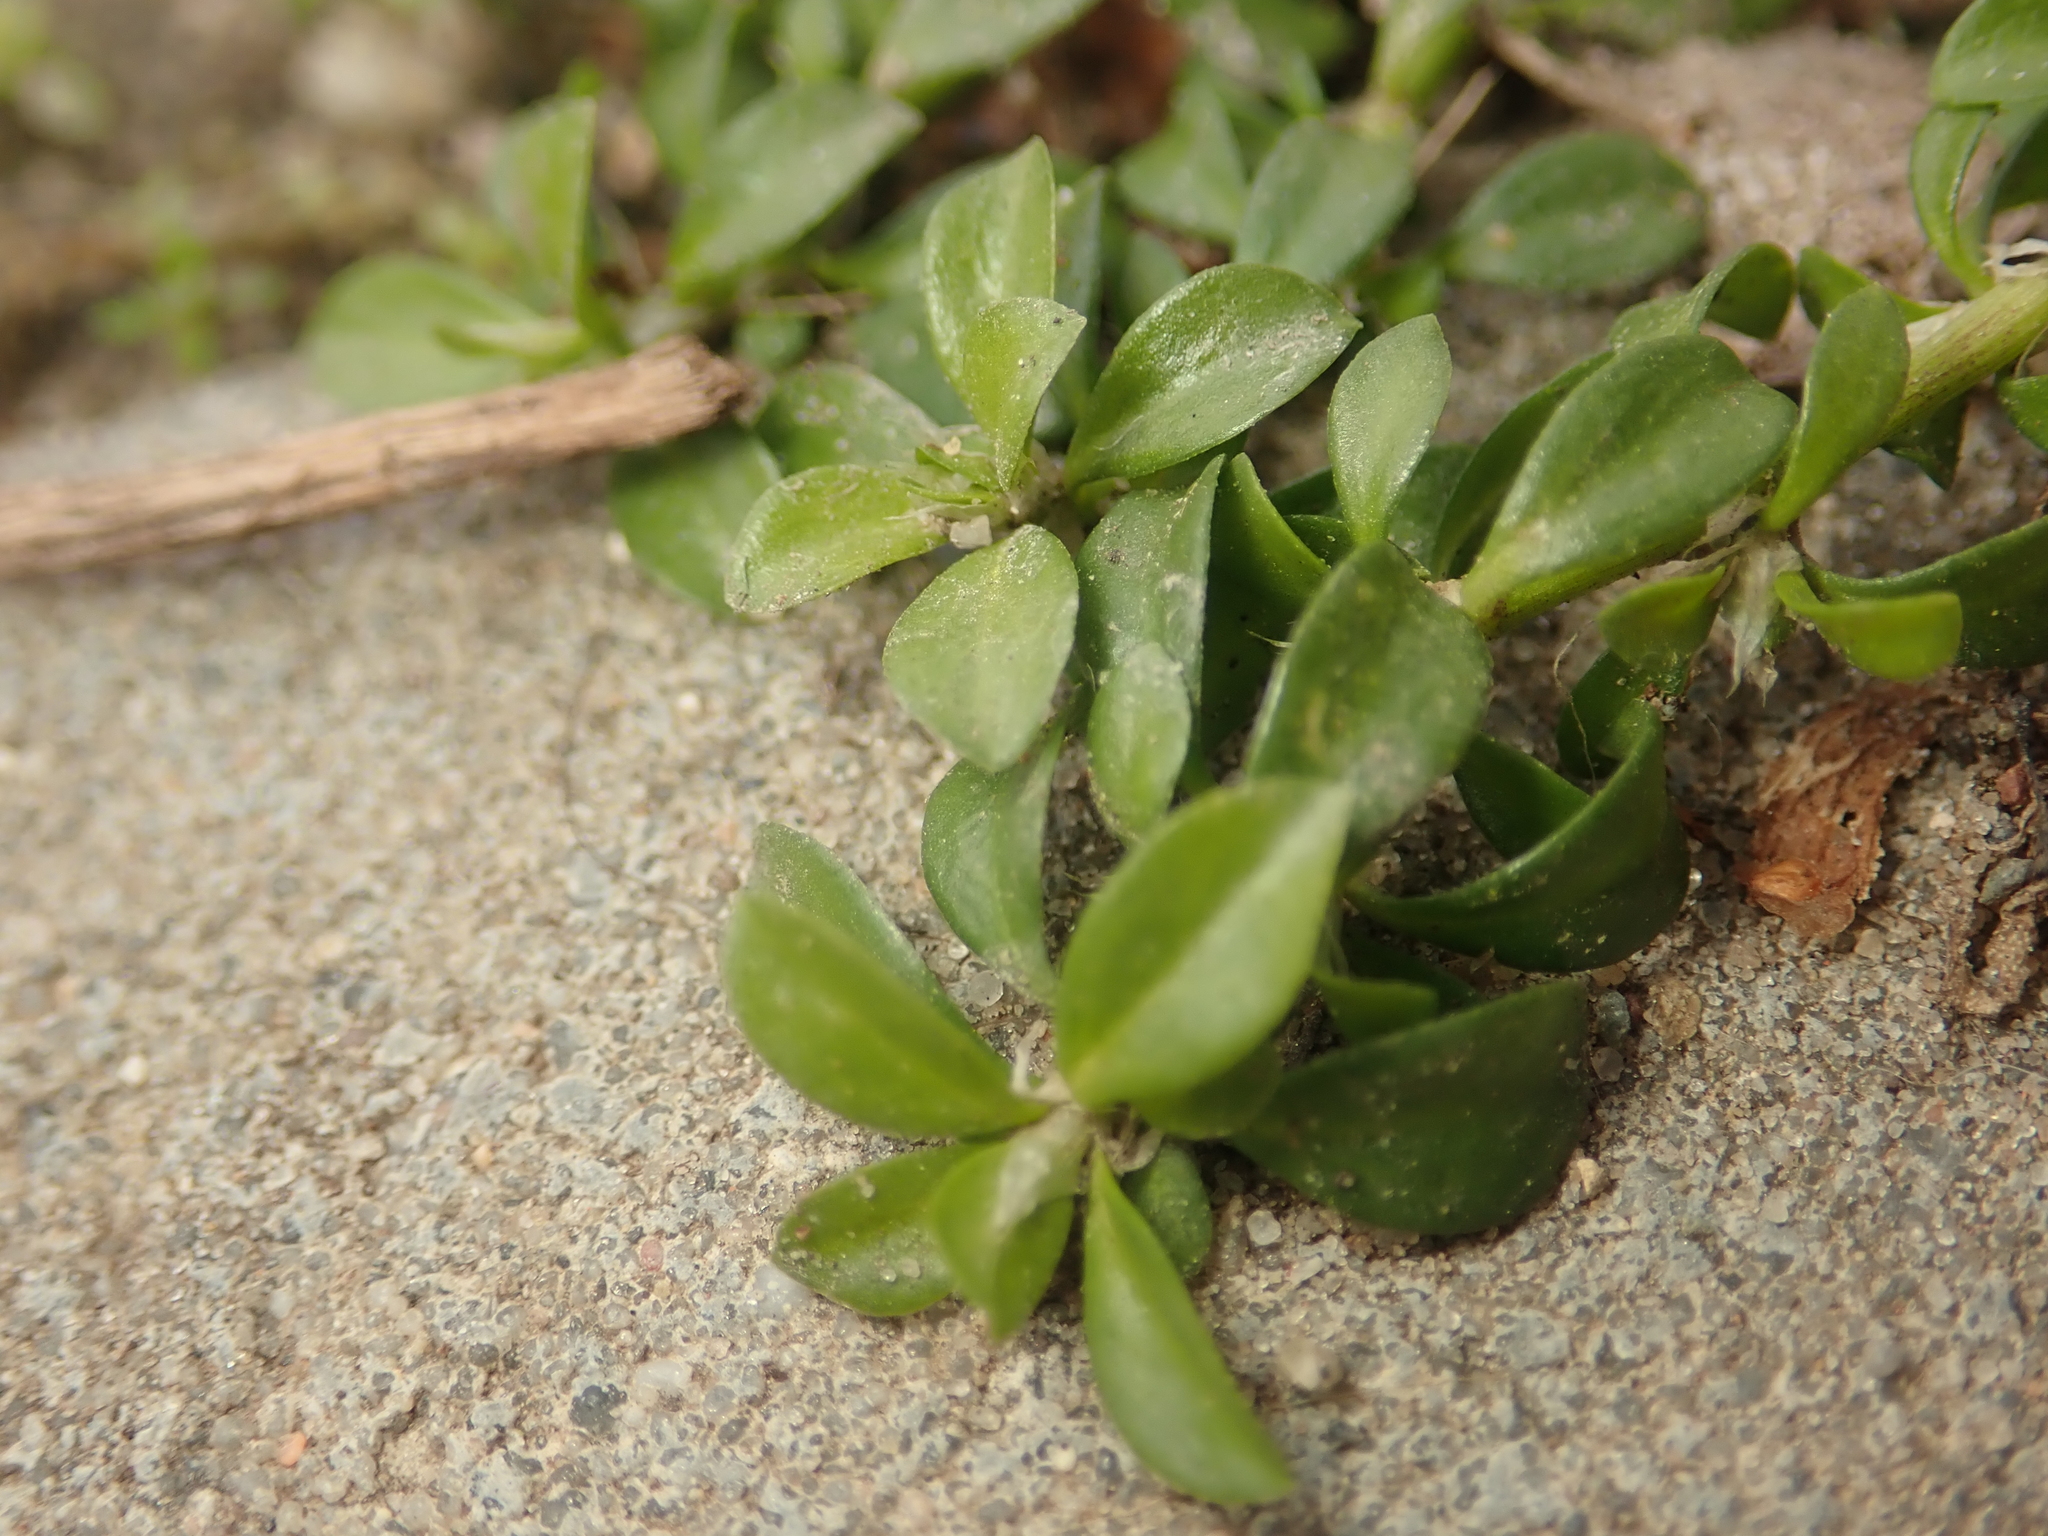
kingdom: Plantae
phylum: Tracheophyta
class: Magnoliopsida
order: Caryophyllales
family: Caryophyllaceae
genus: Polycarpon
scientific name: Polycarpon tetraphyllum
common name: Four-leaved all-seed
